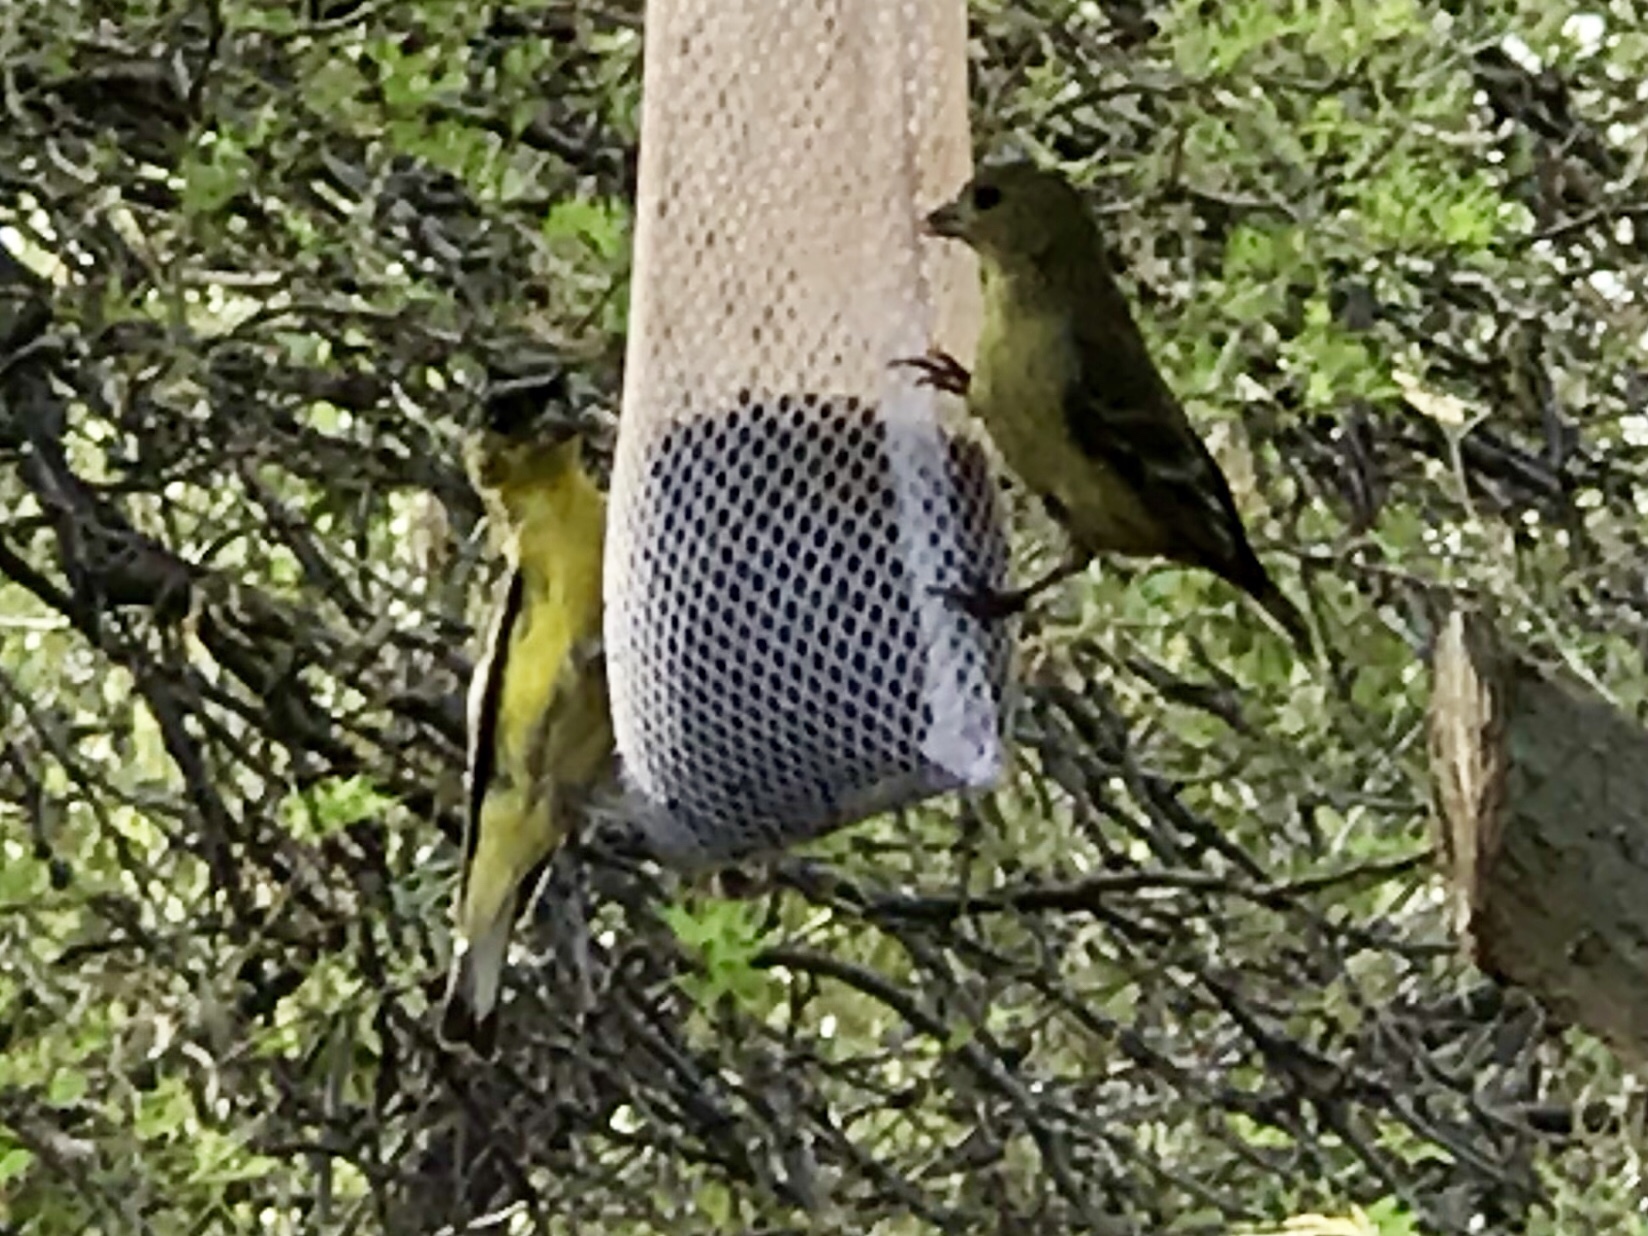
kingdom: Animalia
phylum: Chordata
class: Aves
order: Passeriformes
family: Fringillidae
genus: Spinus
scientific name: Spinus psaltria
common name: Lesser goldfinch
